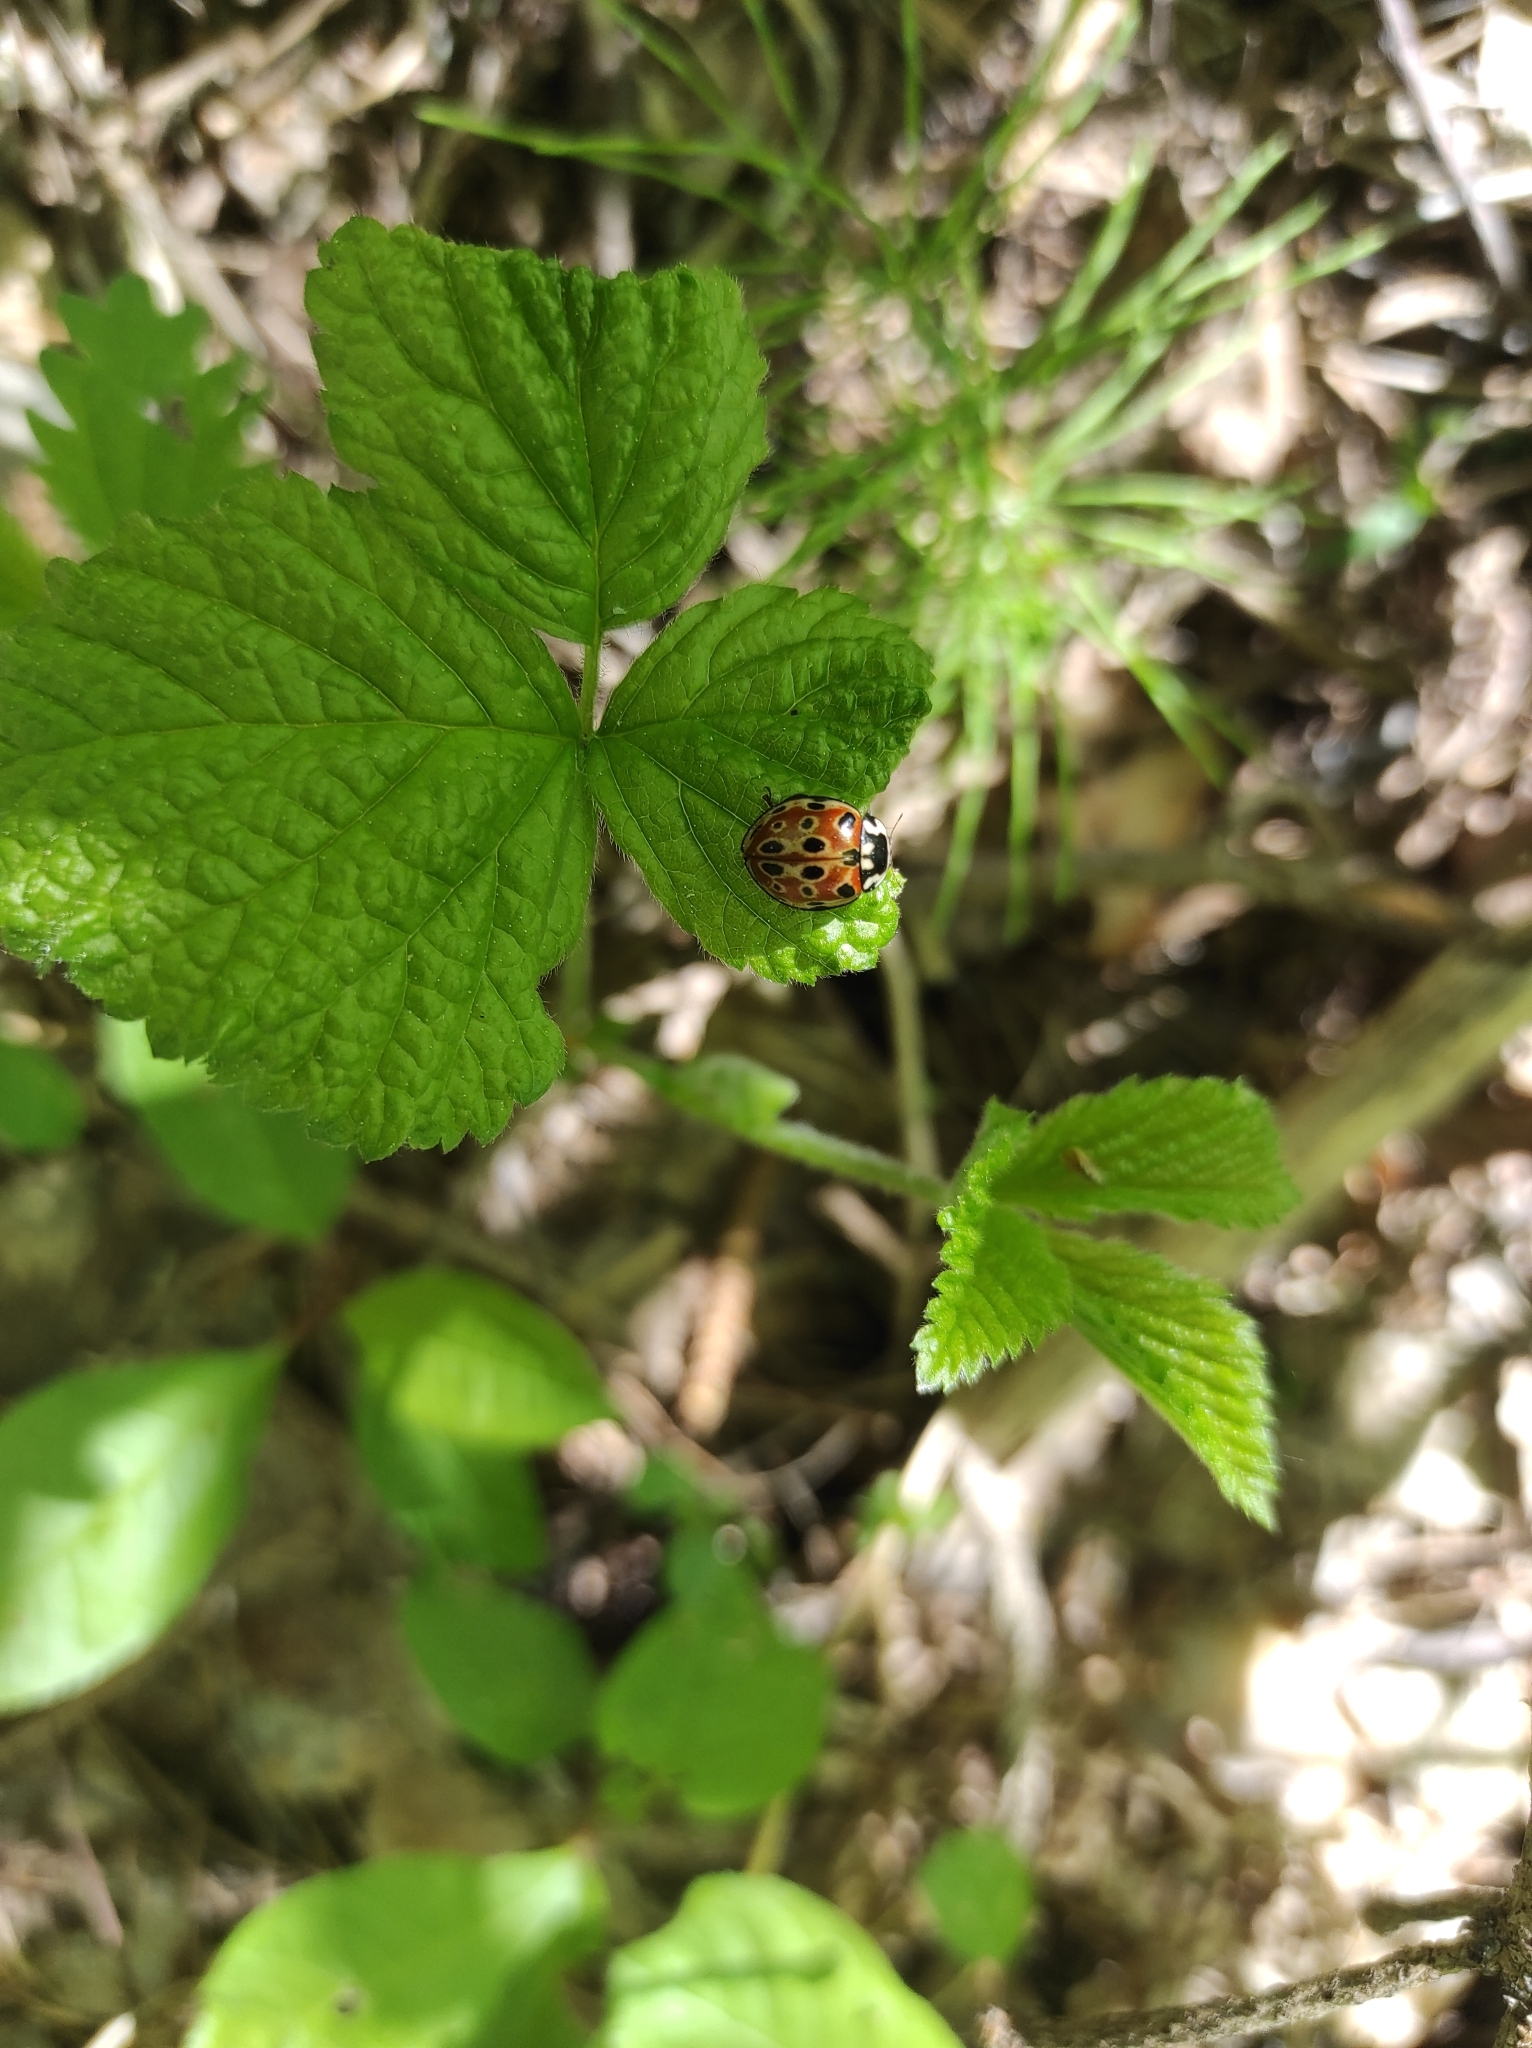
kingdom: Animalia
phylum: Arthropoda
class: Insecta
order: Coleoptera
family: Coccinellidae
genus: Anatis
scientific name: Anatis ocellata
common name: Eyed ladybird
